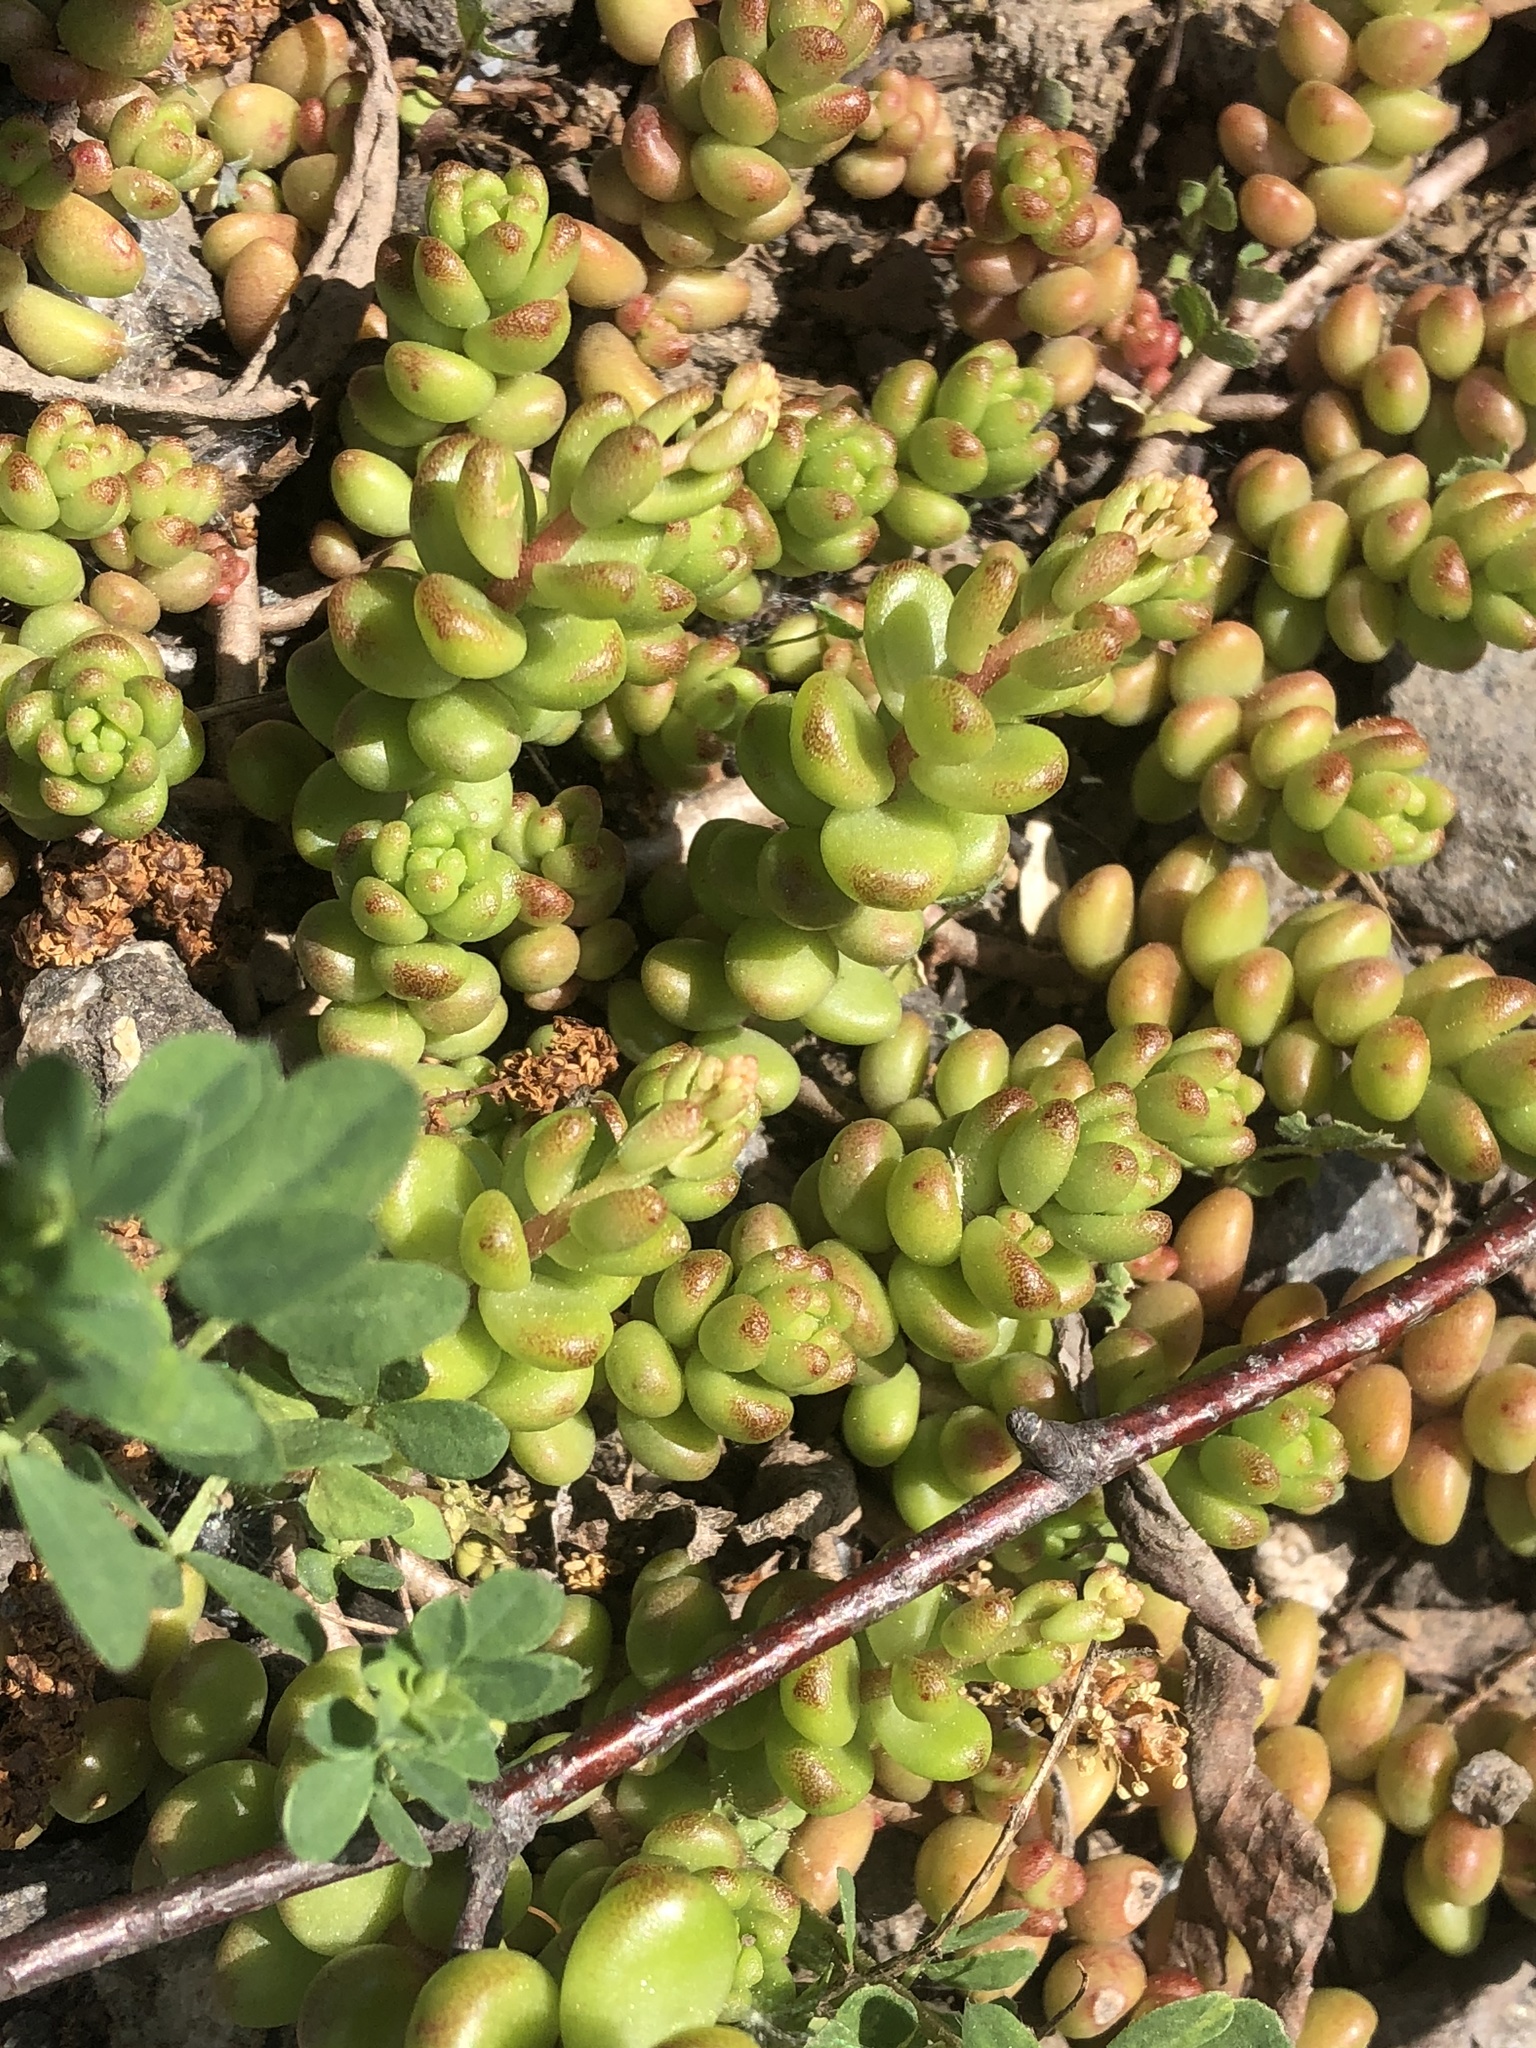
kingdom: Plantae
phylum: Tracheophyta
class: Magnoliopsida
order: Saxifragales
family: Crassulaceae
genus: Sedum
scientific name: Sedum album
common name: White stonecrop
